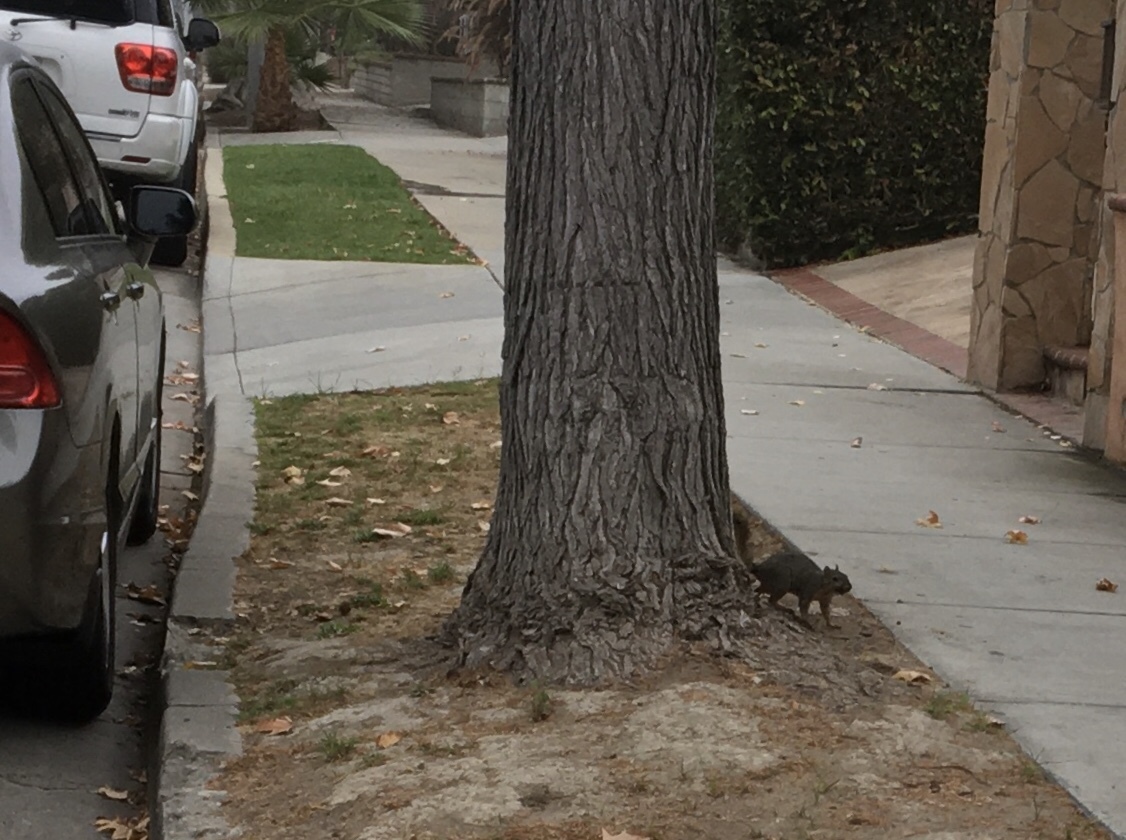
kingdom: Animalia
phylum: Chordata
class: Mammalia
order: Rodentia
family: Sciuridae
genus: Sciurus
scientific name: Sciurus niger
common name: Fox squirrel
